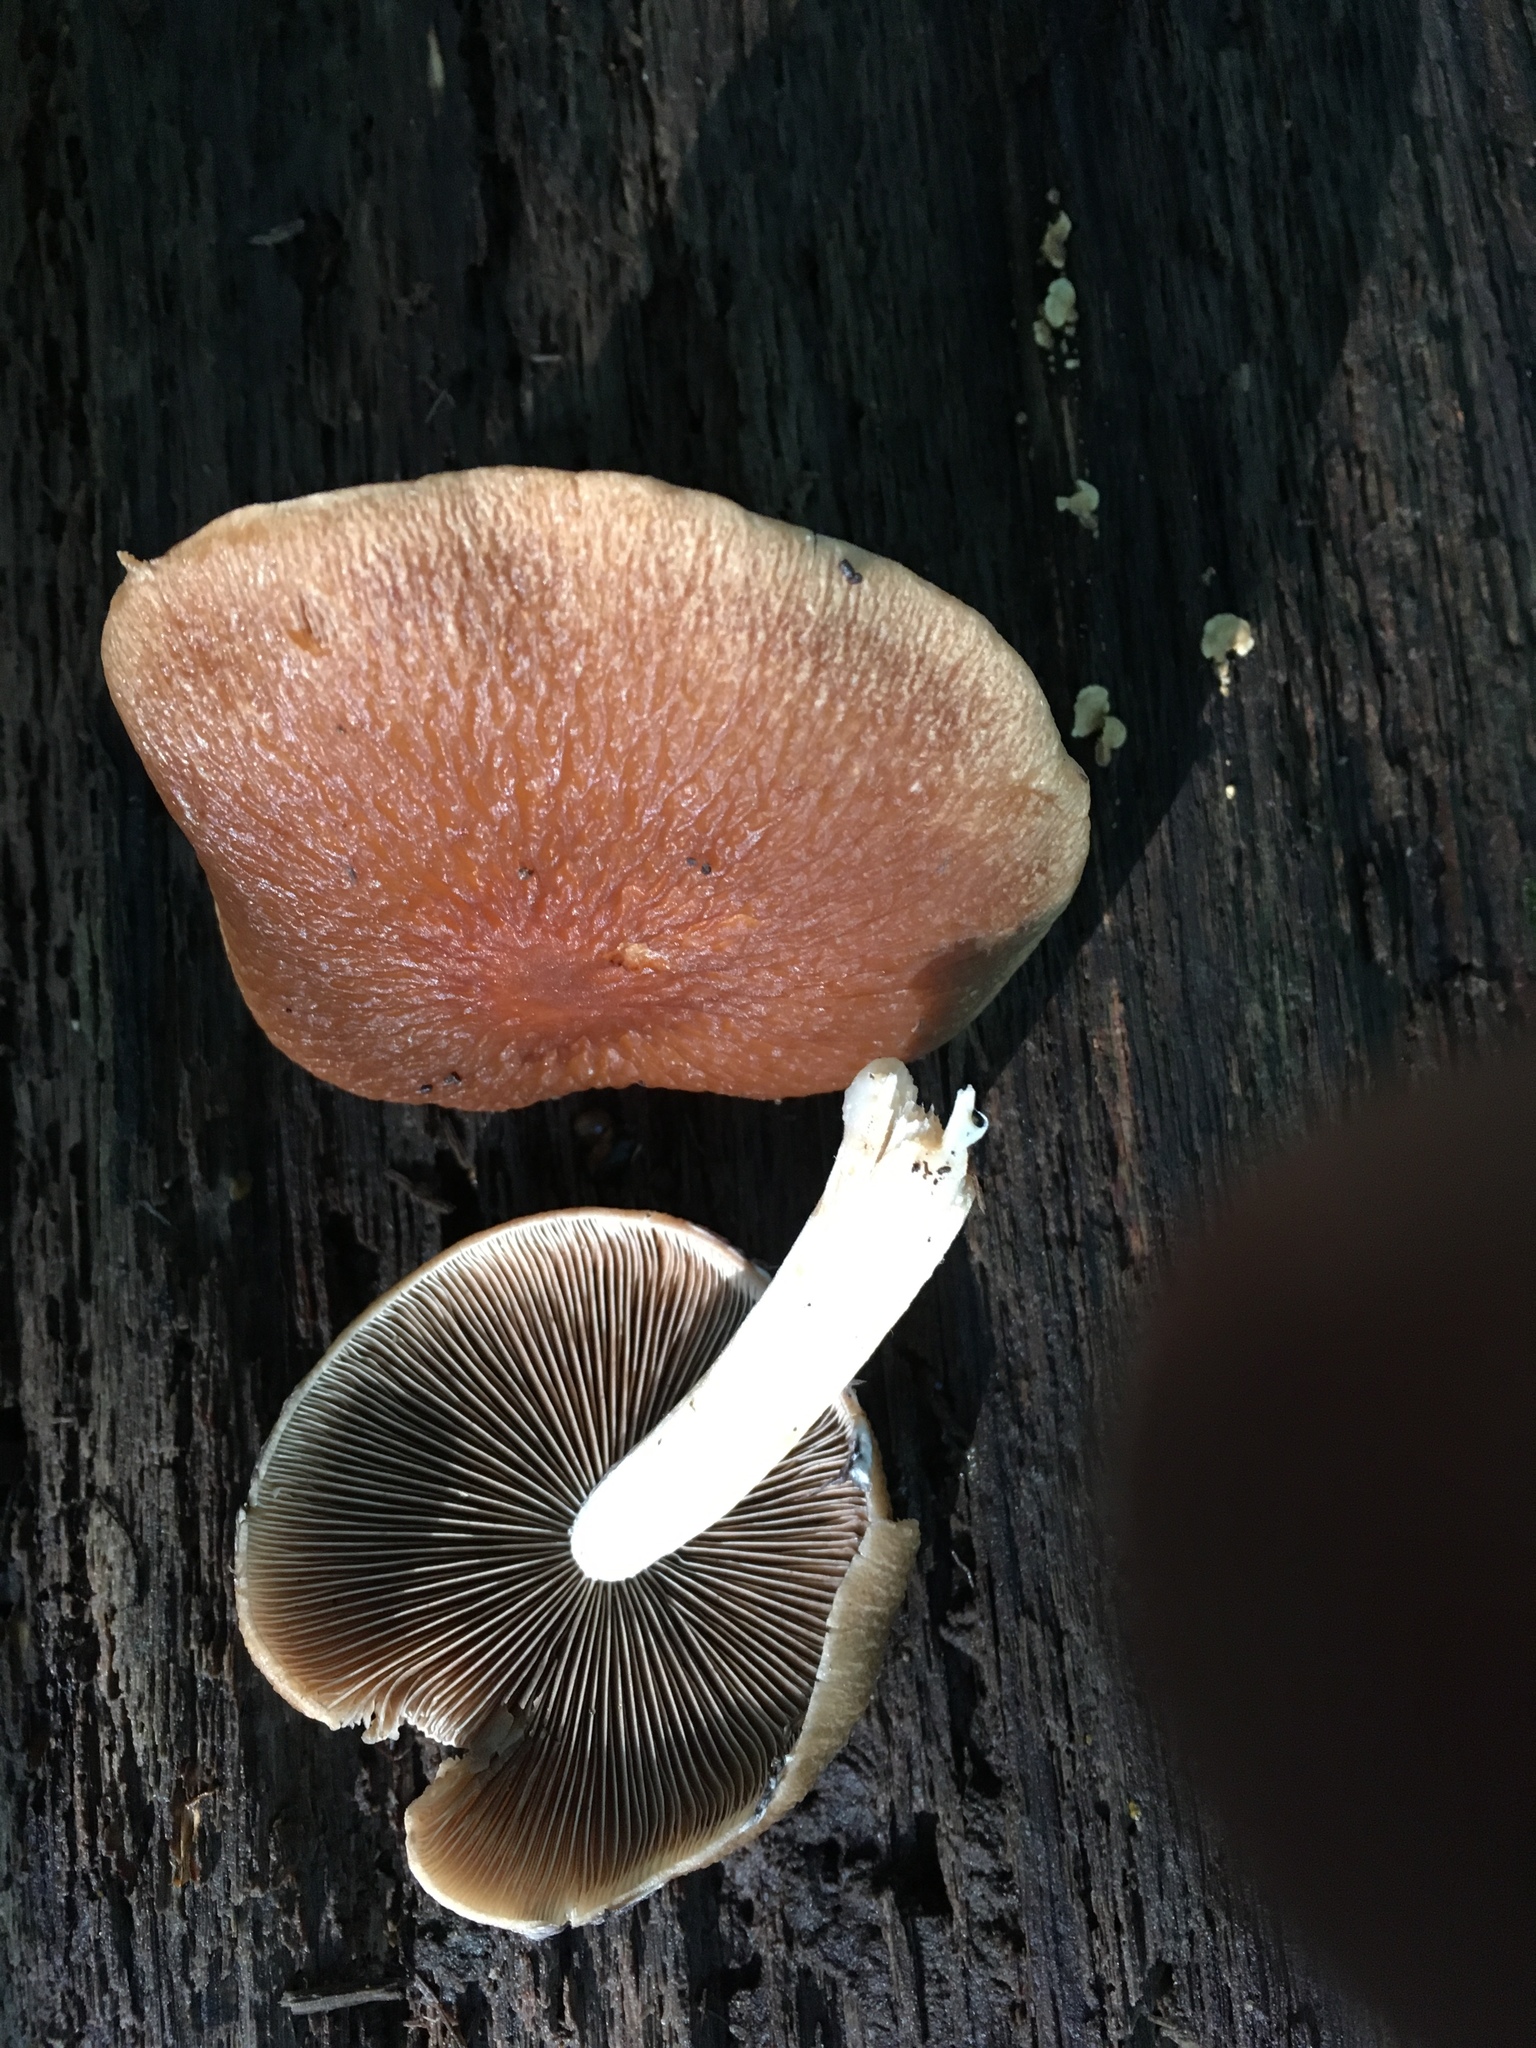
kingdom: Fungi
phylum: Basidiomycota
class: Agaricomycetes
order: Agaricales
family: Psathyrellaceae
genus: Typhrasa
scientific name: Typhrasa gossypina
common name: Wrinkled psathyrella
